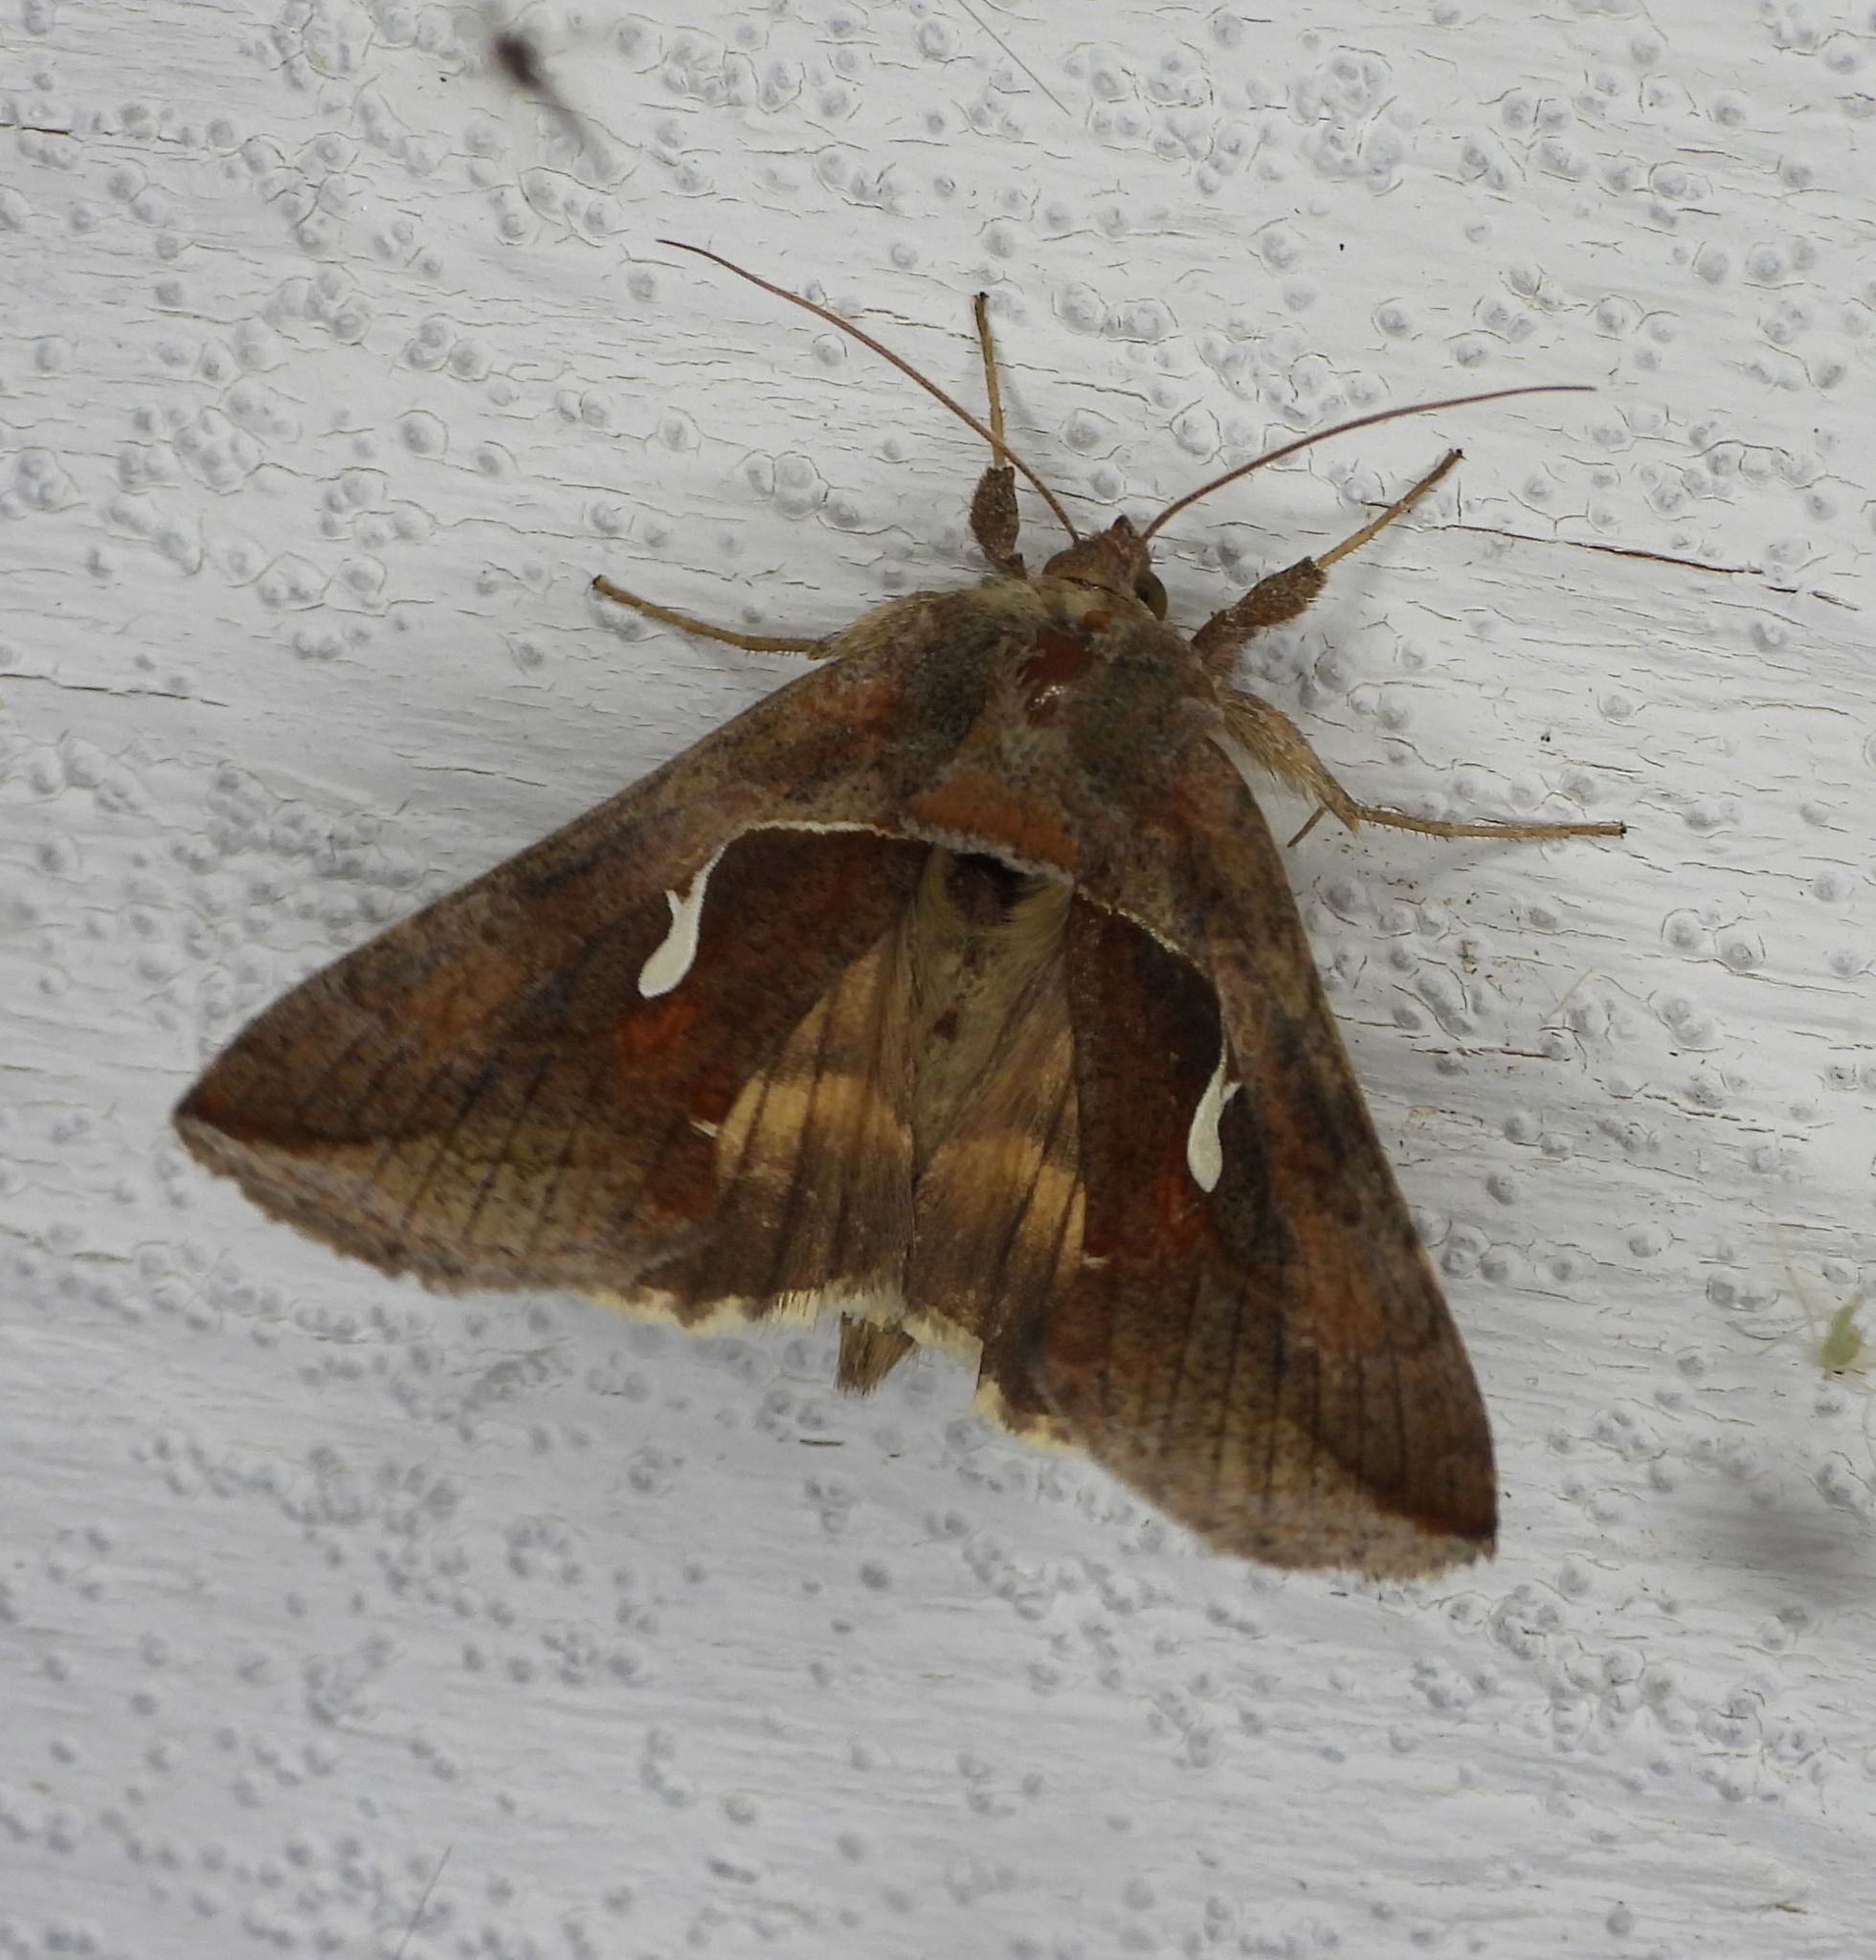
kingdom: Animalia
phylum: Arthropoda
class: Insecta
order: Lepidoptera
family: Noctuidae
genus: Anagrapha
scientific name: Anagrapha falcifera
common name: Celery looper
